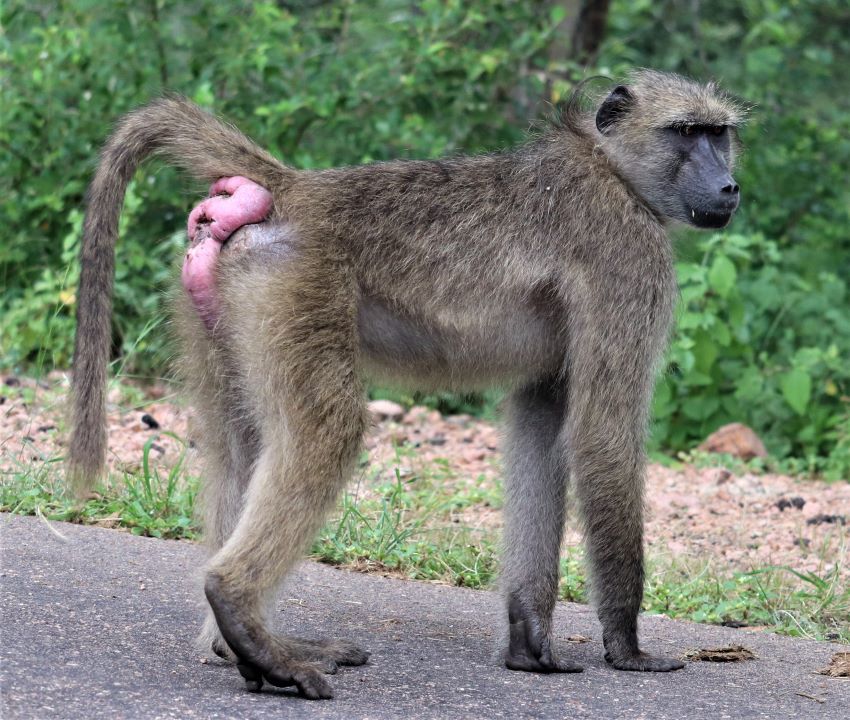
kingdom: Animalia
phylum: Chordata
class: Mammalia
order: Primates
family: Cercopithecidae
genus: Papio
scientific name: Papio ursinus
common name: Chacma baboon
